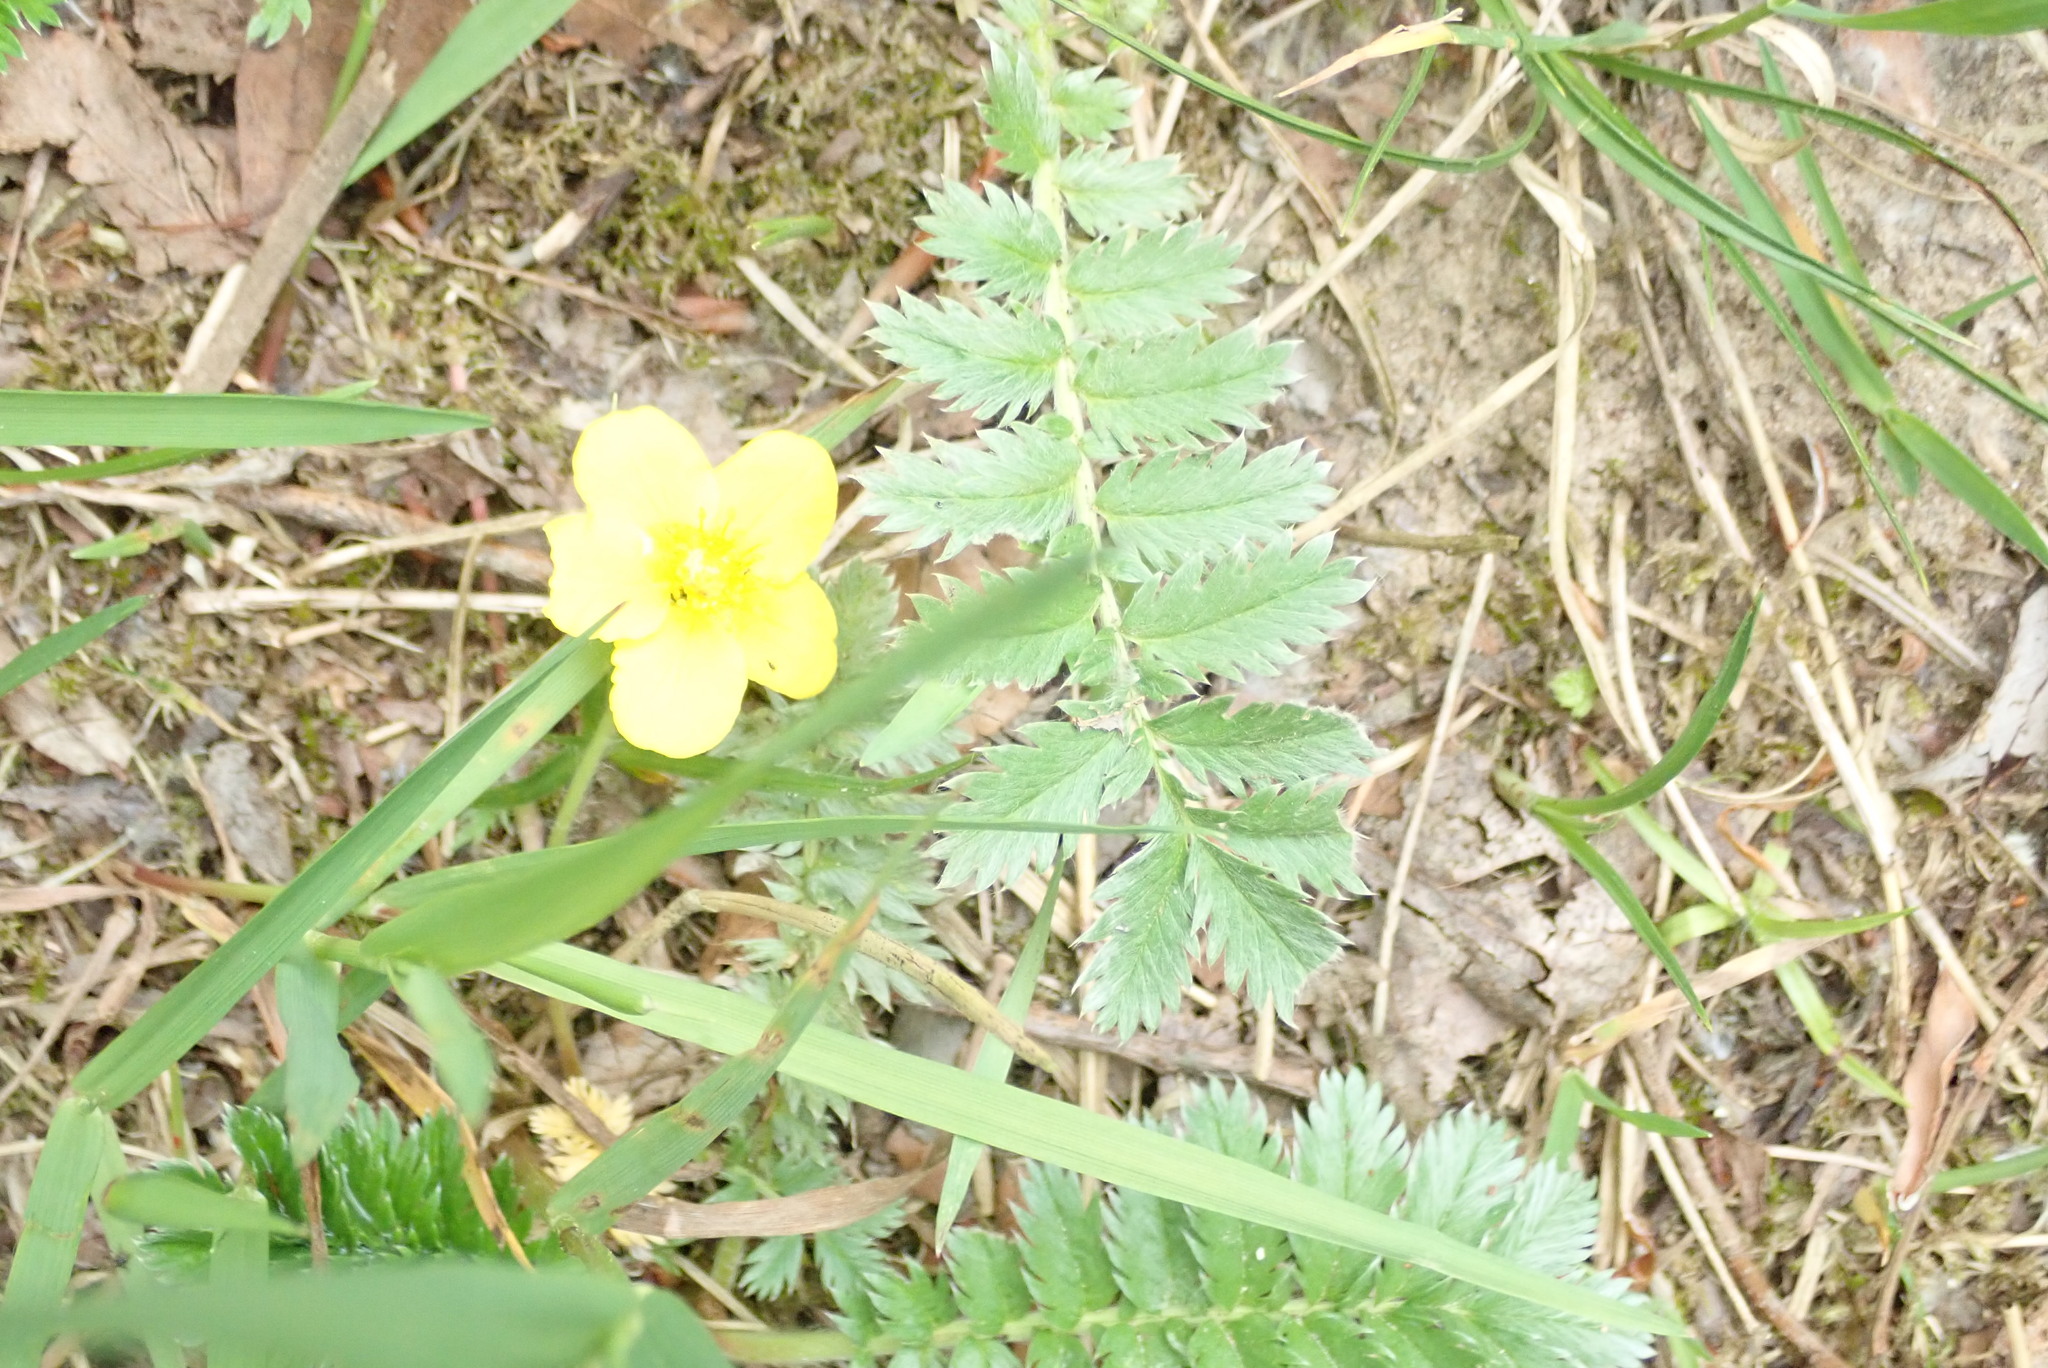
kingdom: Plantae
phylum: Tracheophyta
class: Magnoliopsida
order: Rosales
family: Rosaceae
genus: Argentina
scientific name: Argentina anserina
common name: Common silverweed
